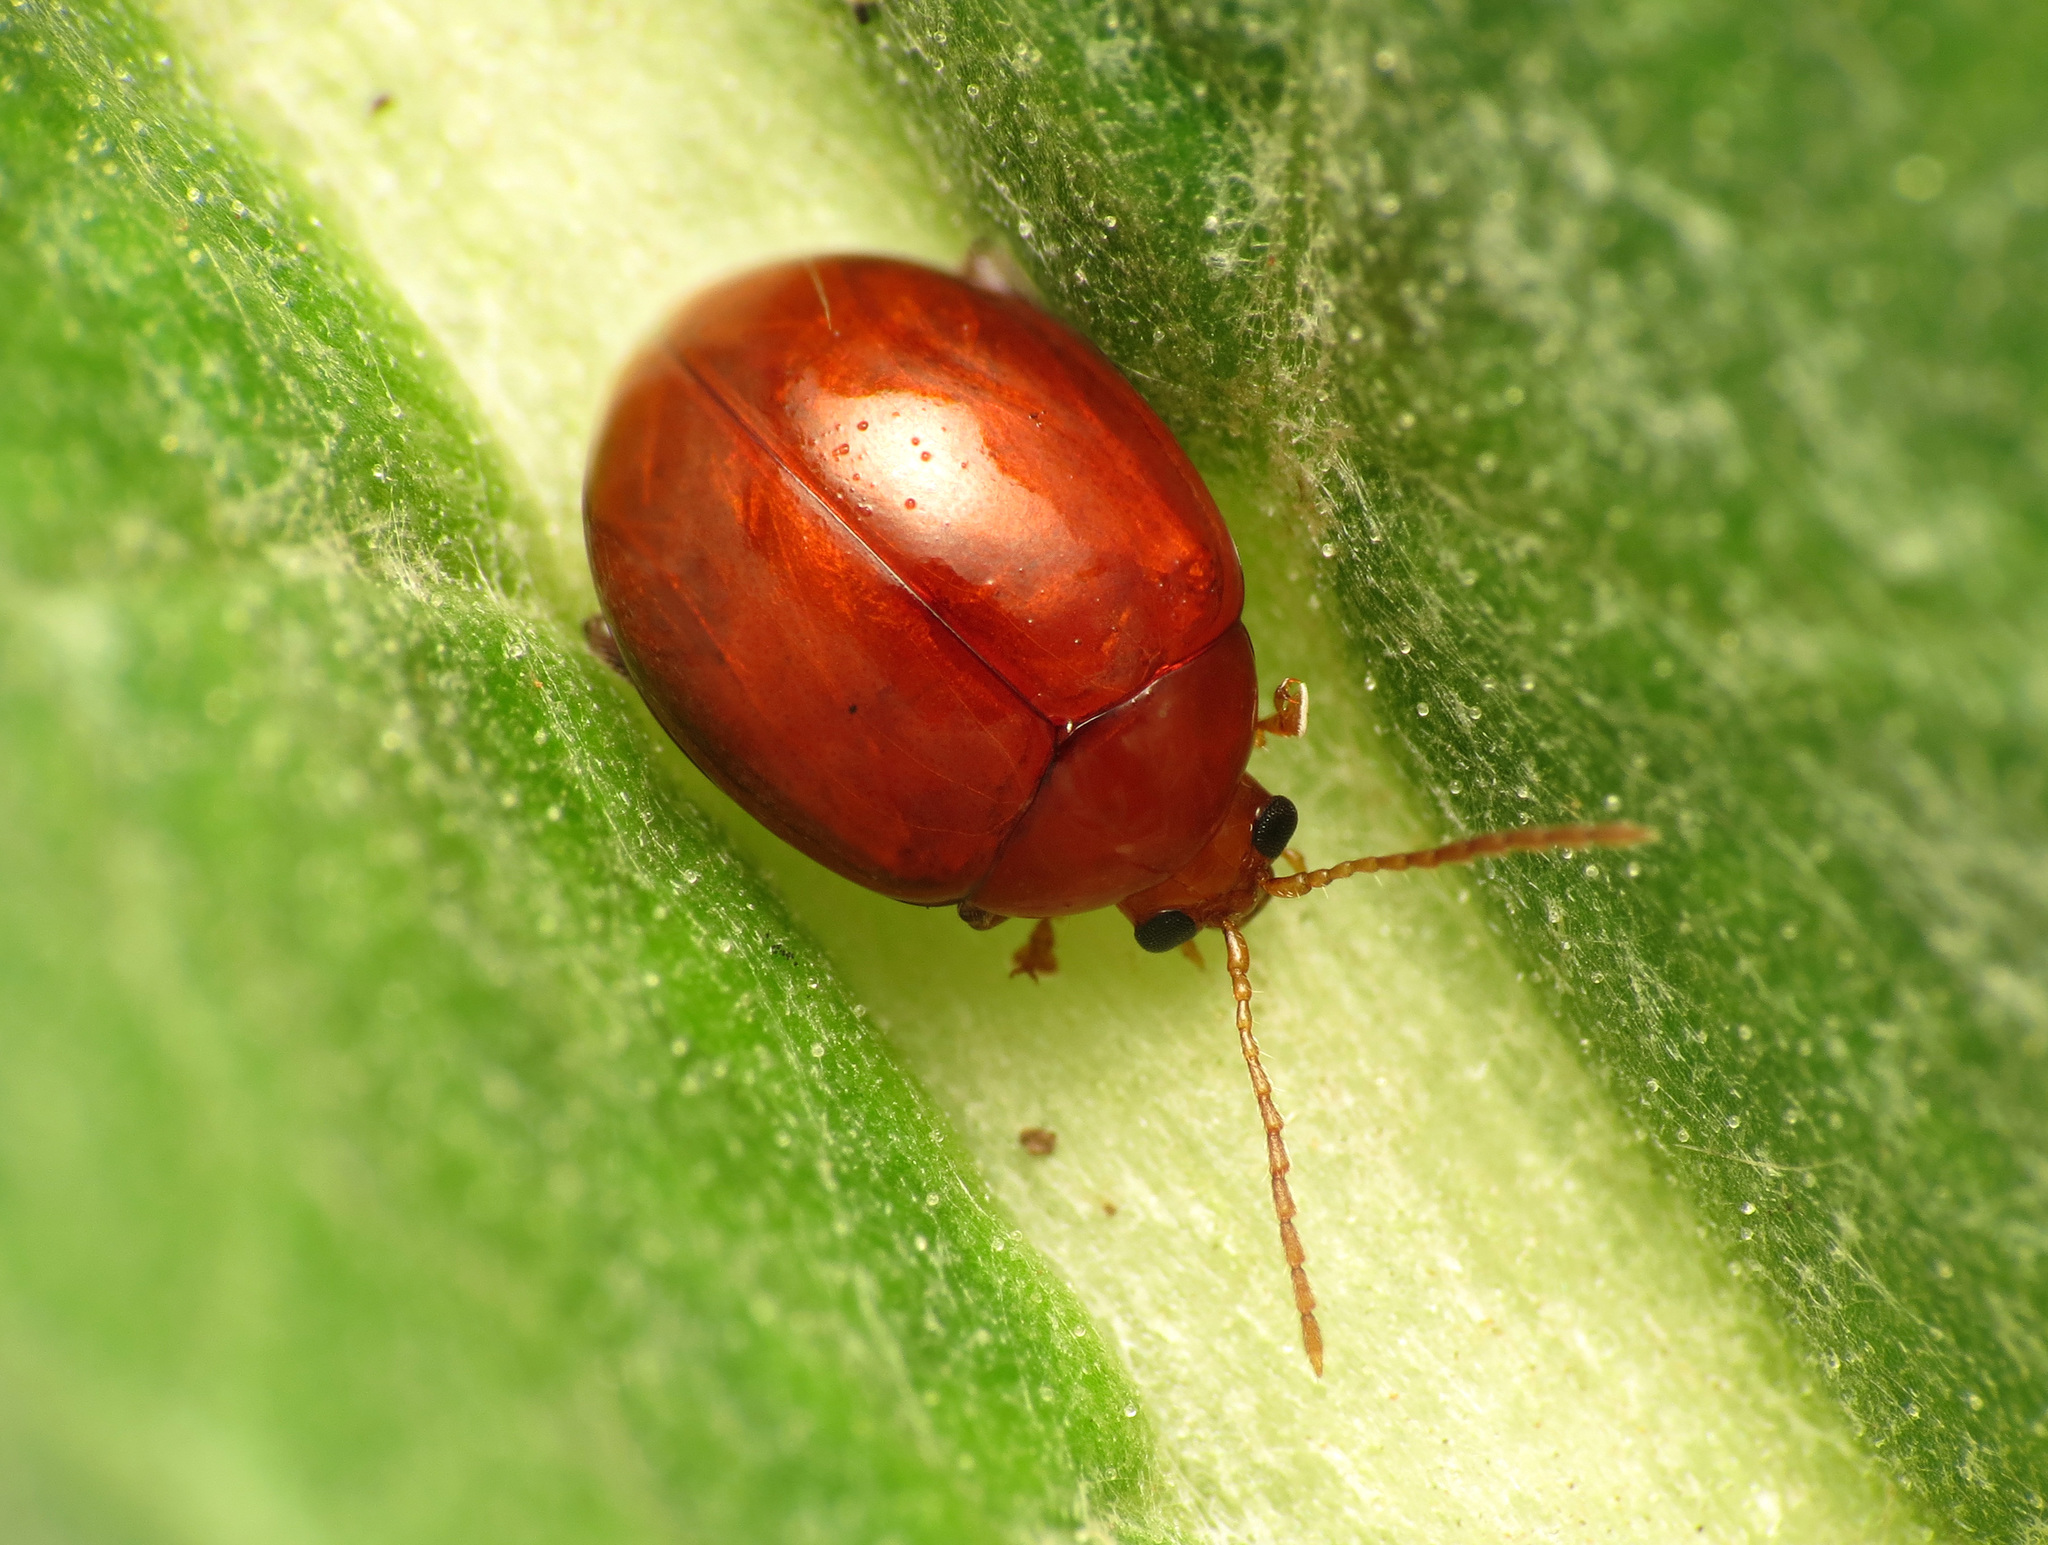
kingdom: Animalia
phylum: Arthropoda
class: Insecta
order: Coleoptera
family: Chrysomelidae
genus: Sphaeroderma
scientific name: Sphaeroderma rubi
